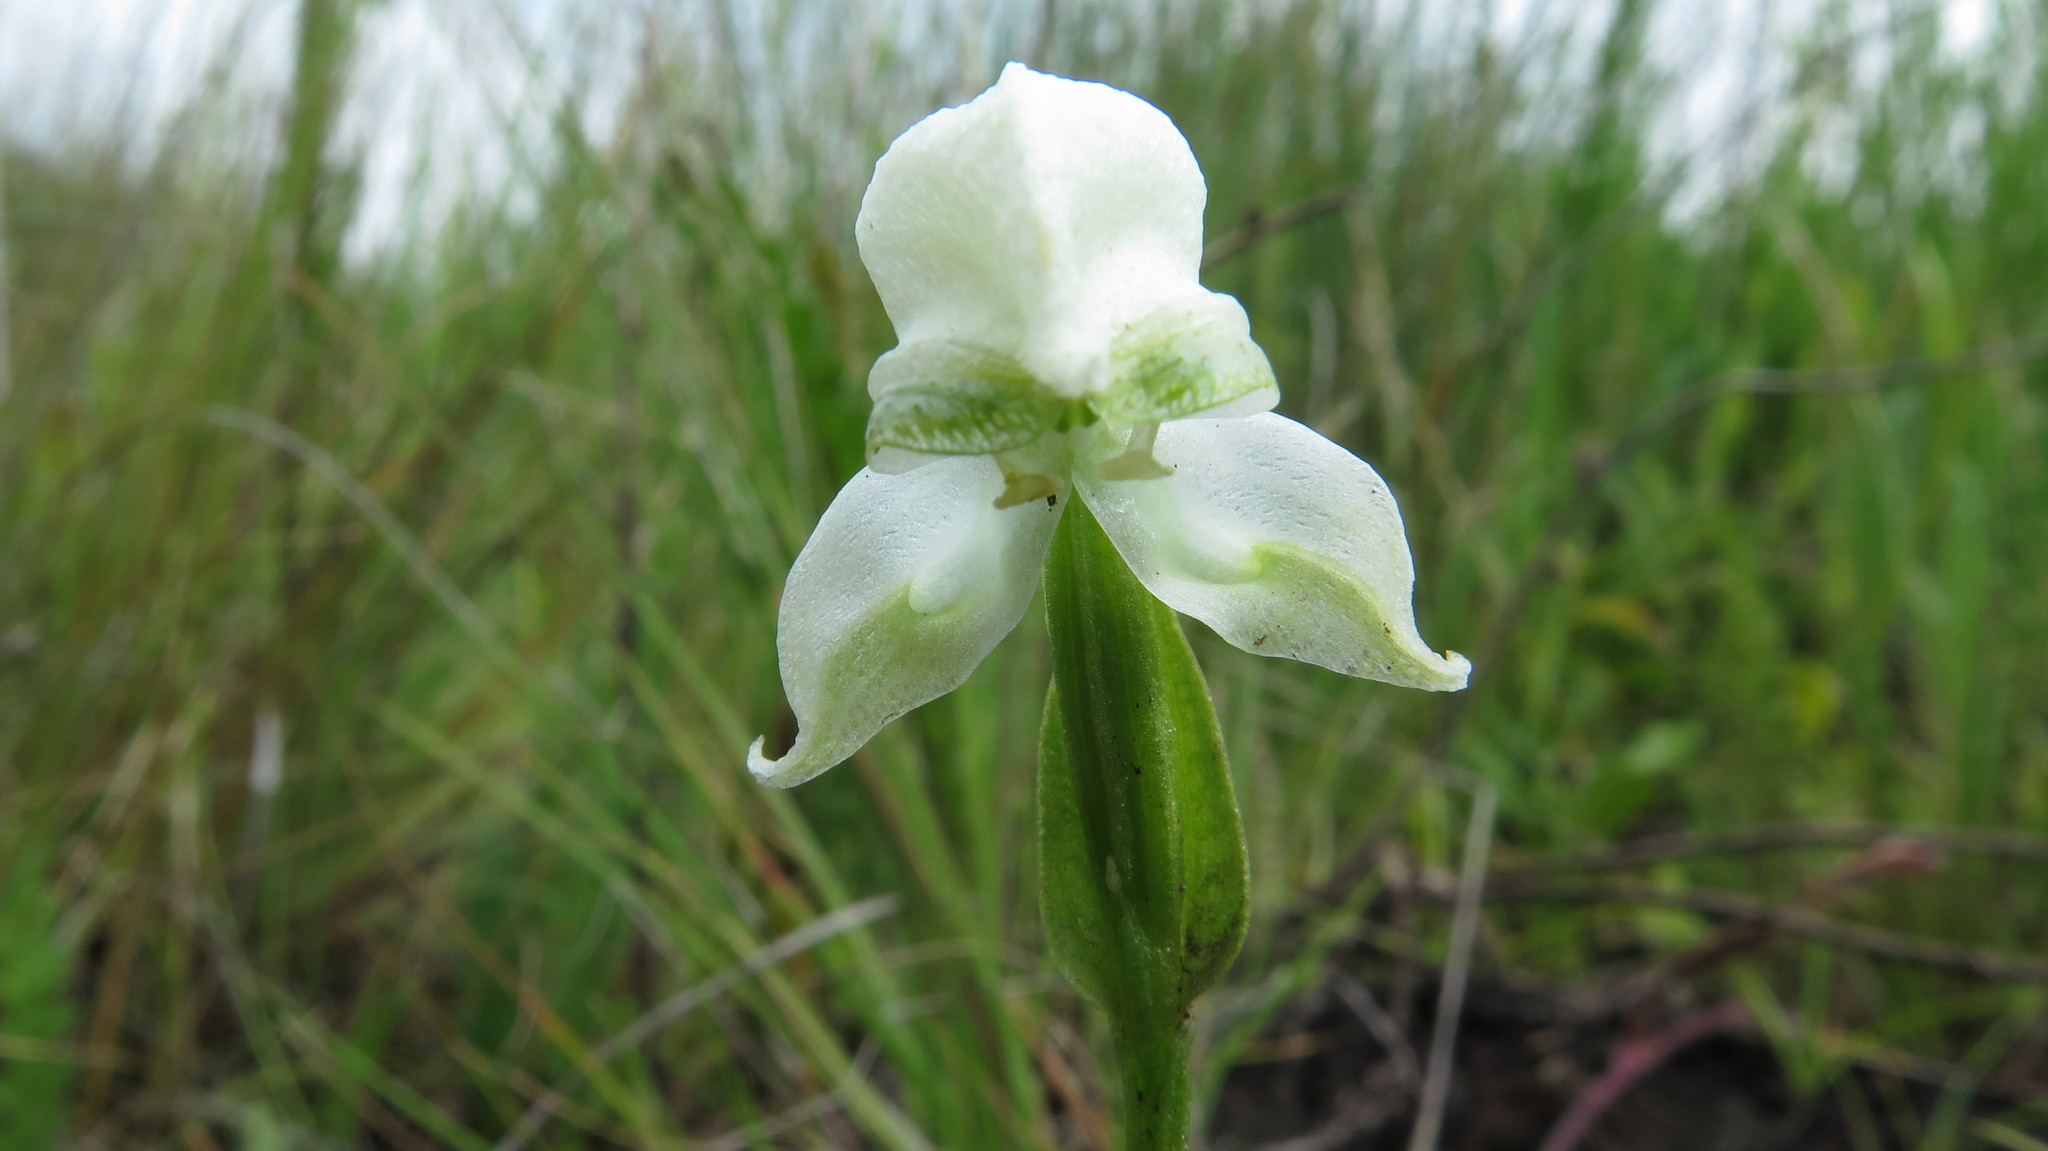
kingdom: Plantae
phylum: Tracheophyta
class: Liliopsida
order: Asparagales
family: Orchidaceae
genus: Disperis
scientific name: Disperis wealei
